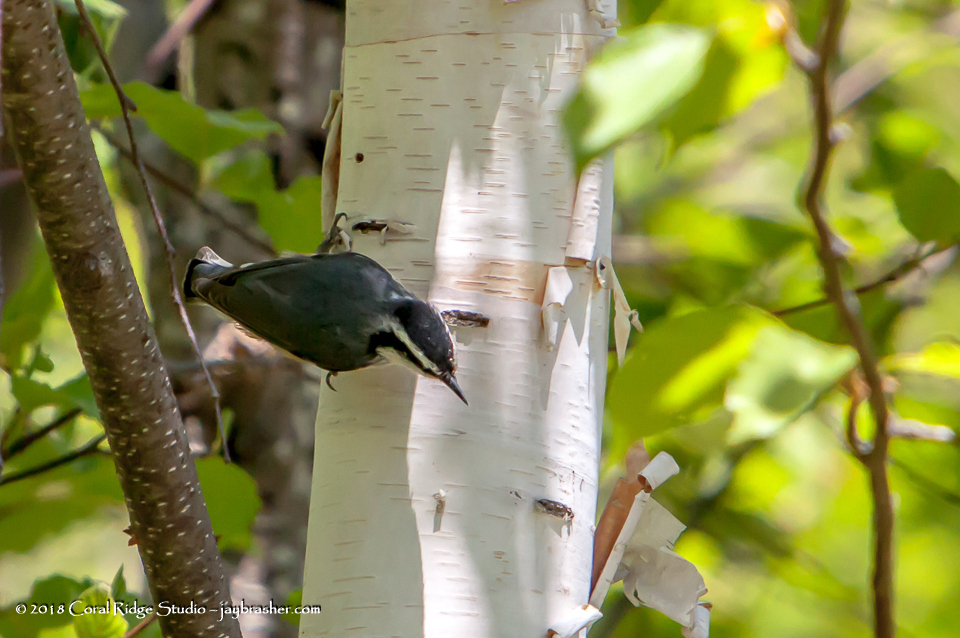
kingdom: Animalia
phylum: Chordata
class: Aves
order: Passeriformes
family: Sittidae
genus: Sitta
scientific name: Sitta canadensis
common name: Red-breasted nuthatch
